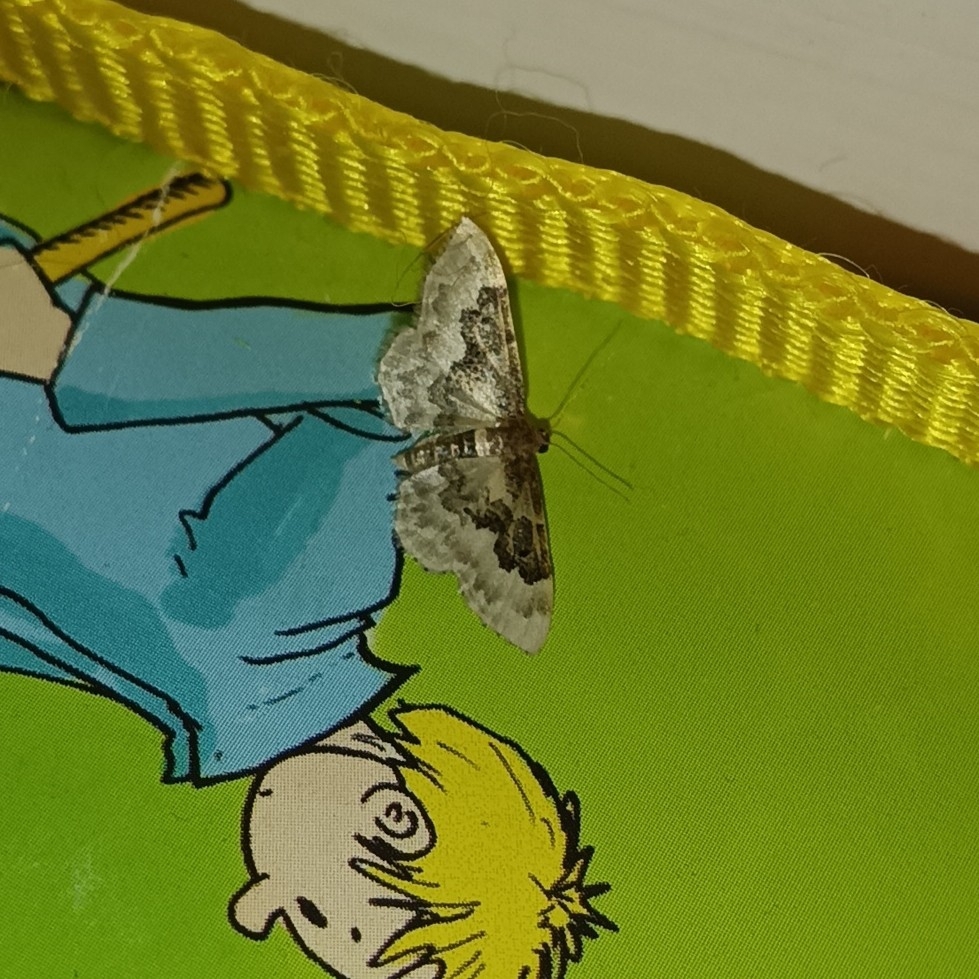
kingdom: Animalia
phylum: Arthropoda
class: Insecta
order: Lepidoptera
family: Geometridae
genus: Idaea
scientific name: Idaea rusticata
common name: Least carpet
